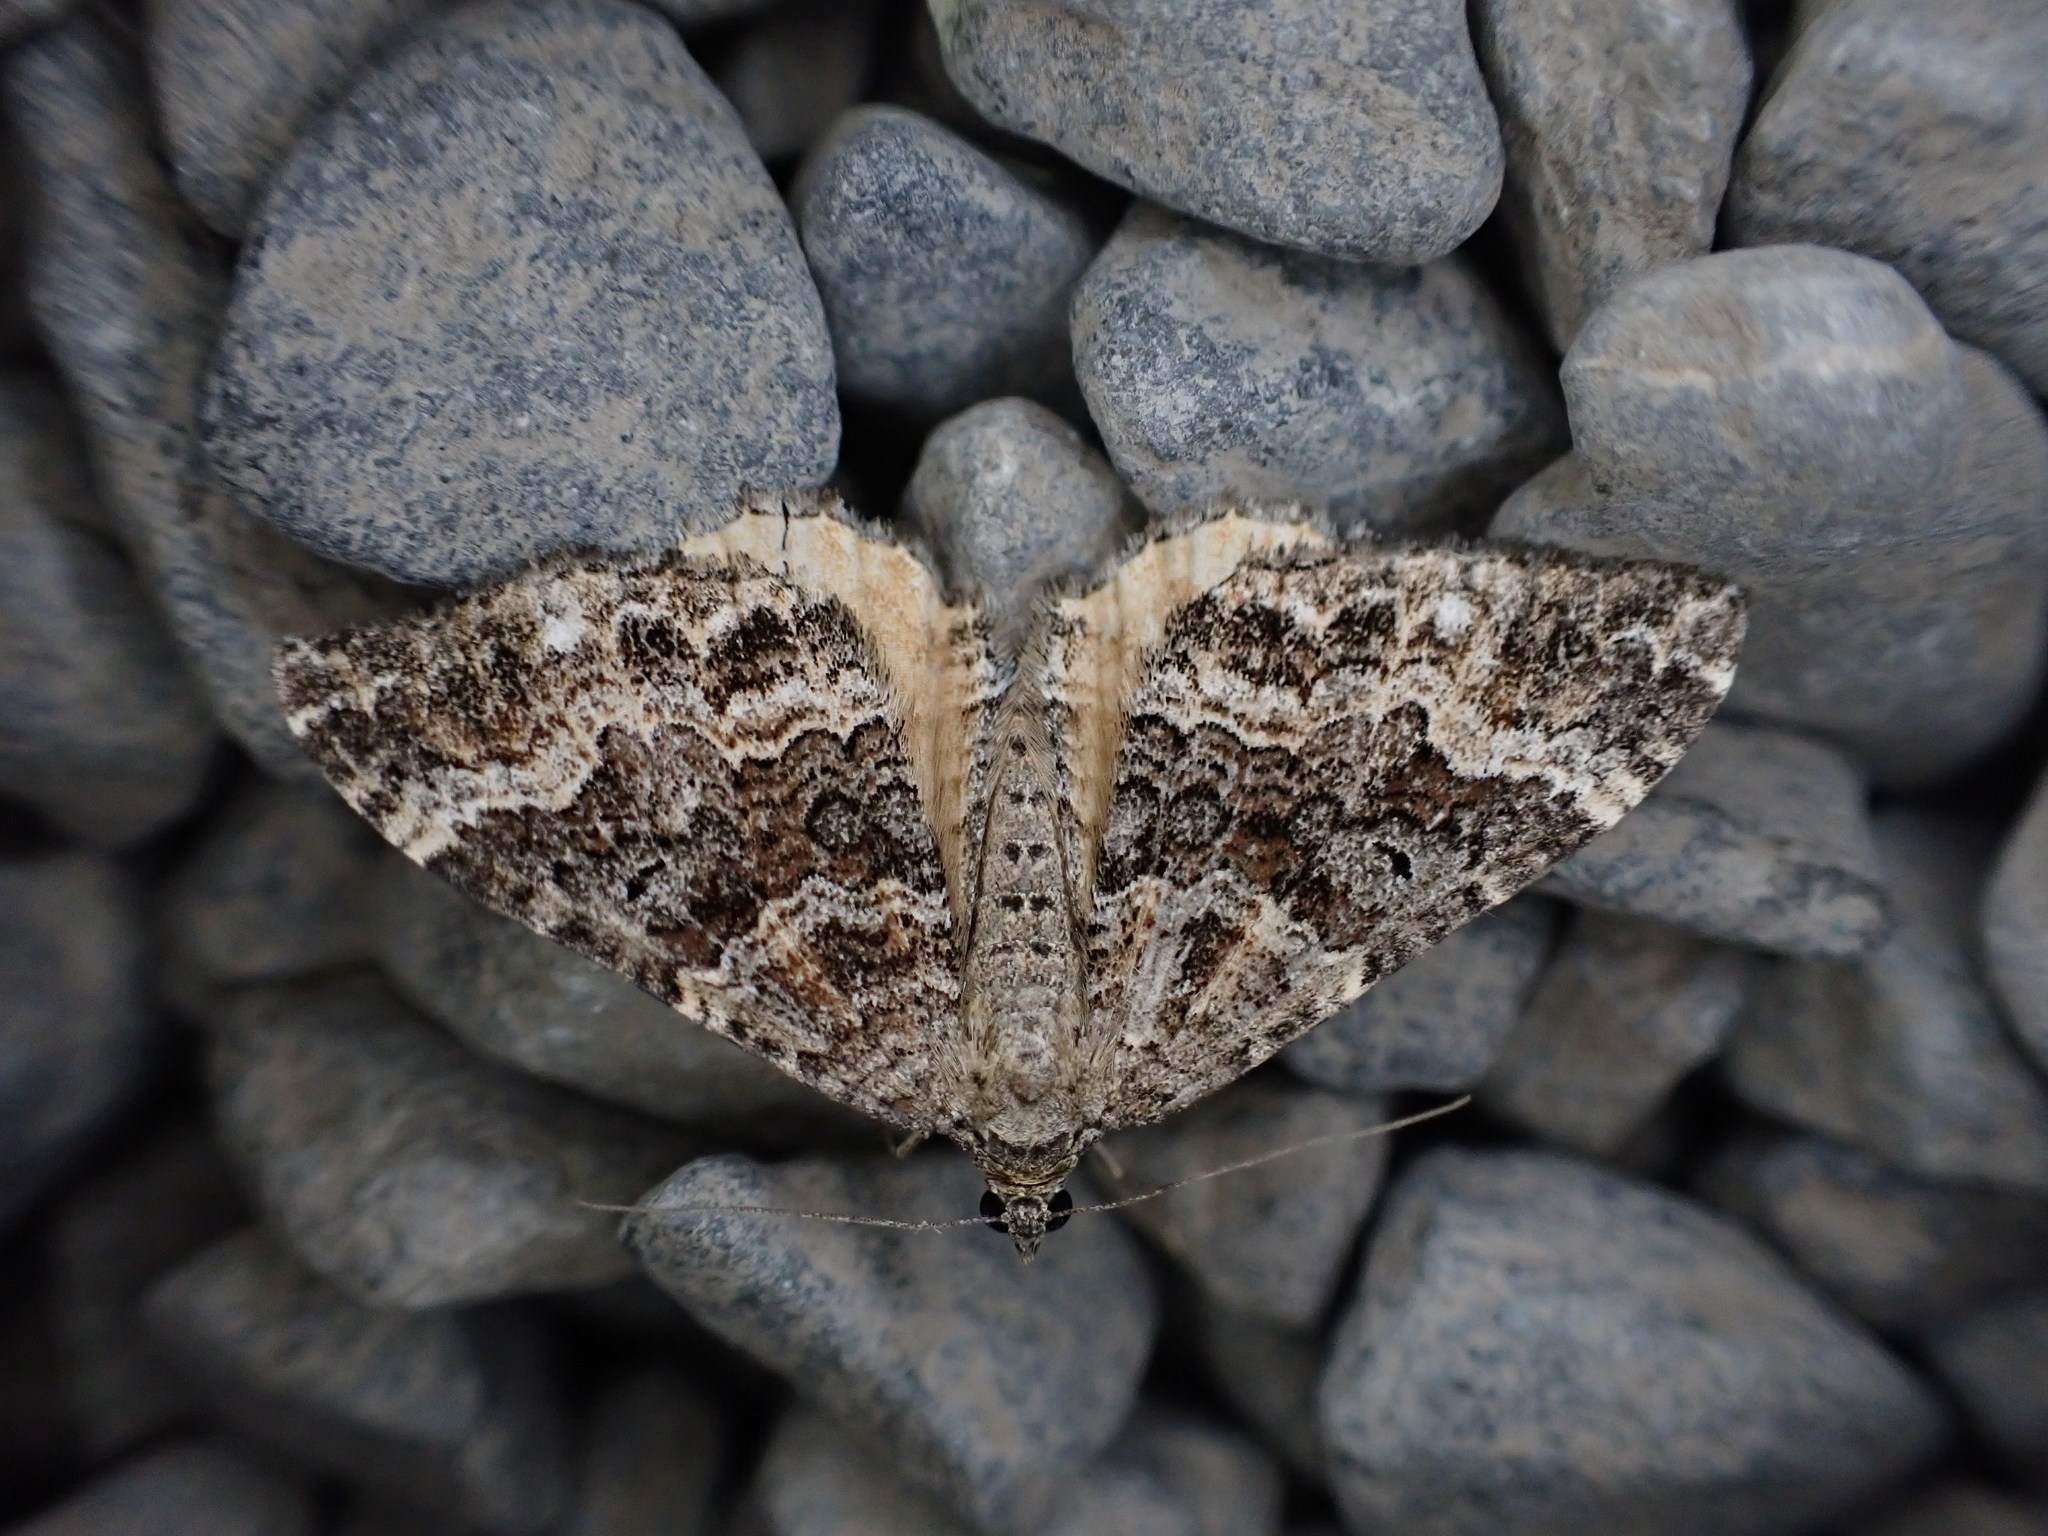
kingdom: Animalia
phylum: Arthropoda
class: Insecta
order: Lepidoptera
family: Geometridae
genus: Hydriomena
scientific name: Hydriomena deltoidata
